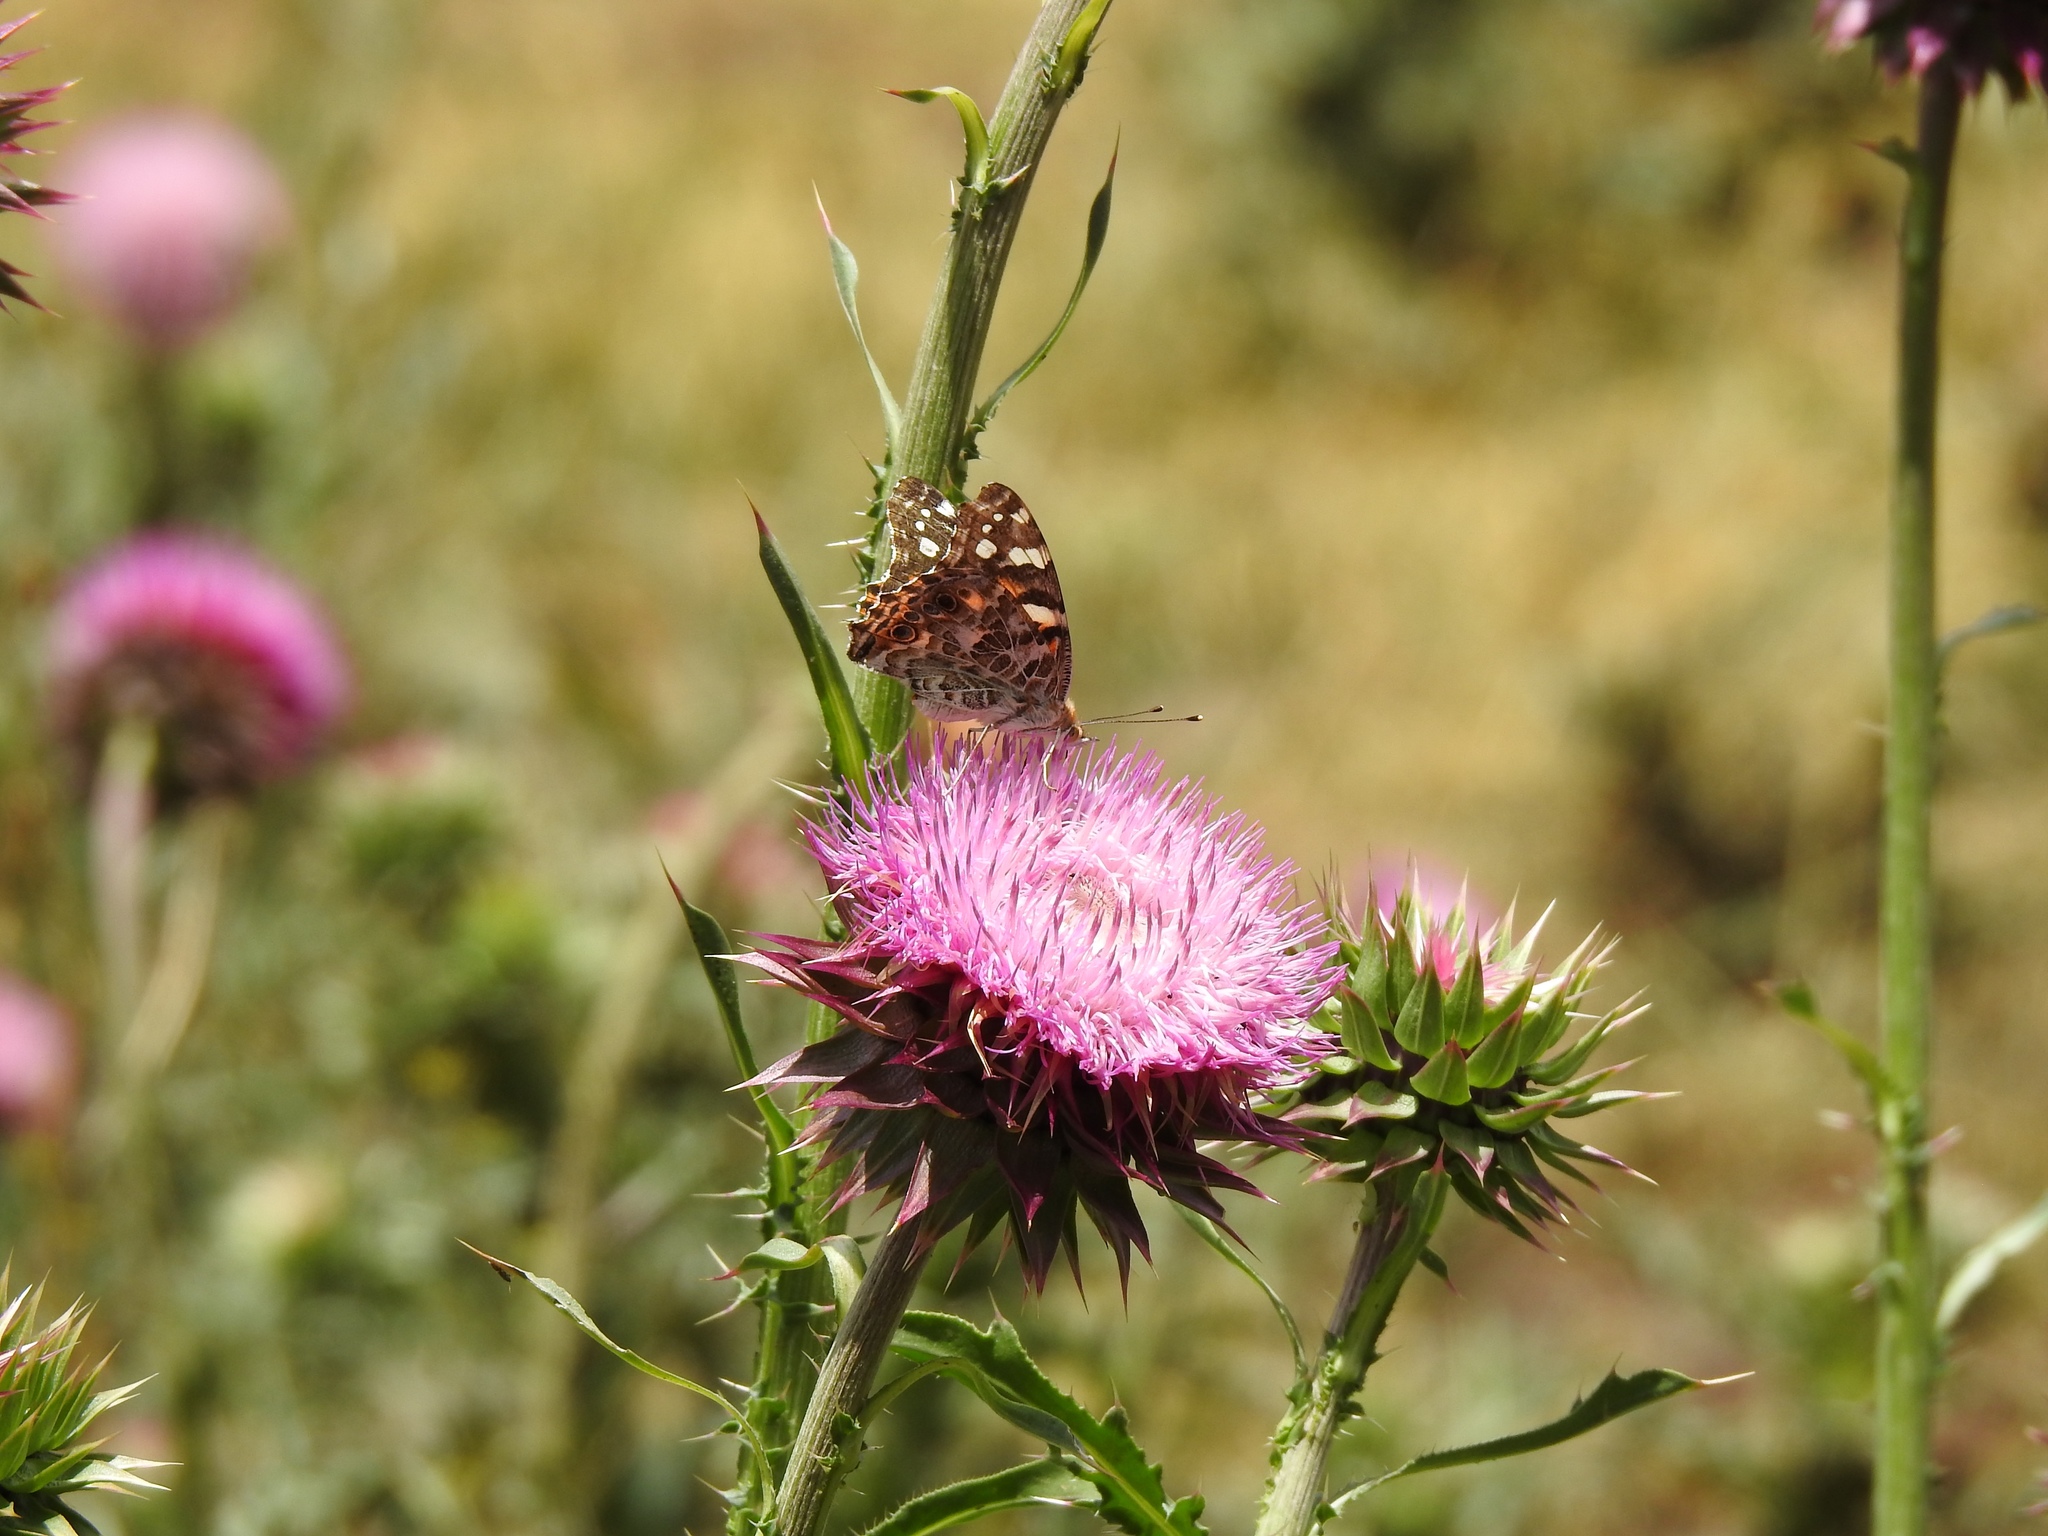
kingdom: Animalia
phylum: Arthropoda
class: Insecta
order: Lepidoptera
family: Nymphalidae
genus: Vanessa
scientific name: Vanessa cardui
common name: Painted lady
